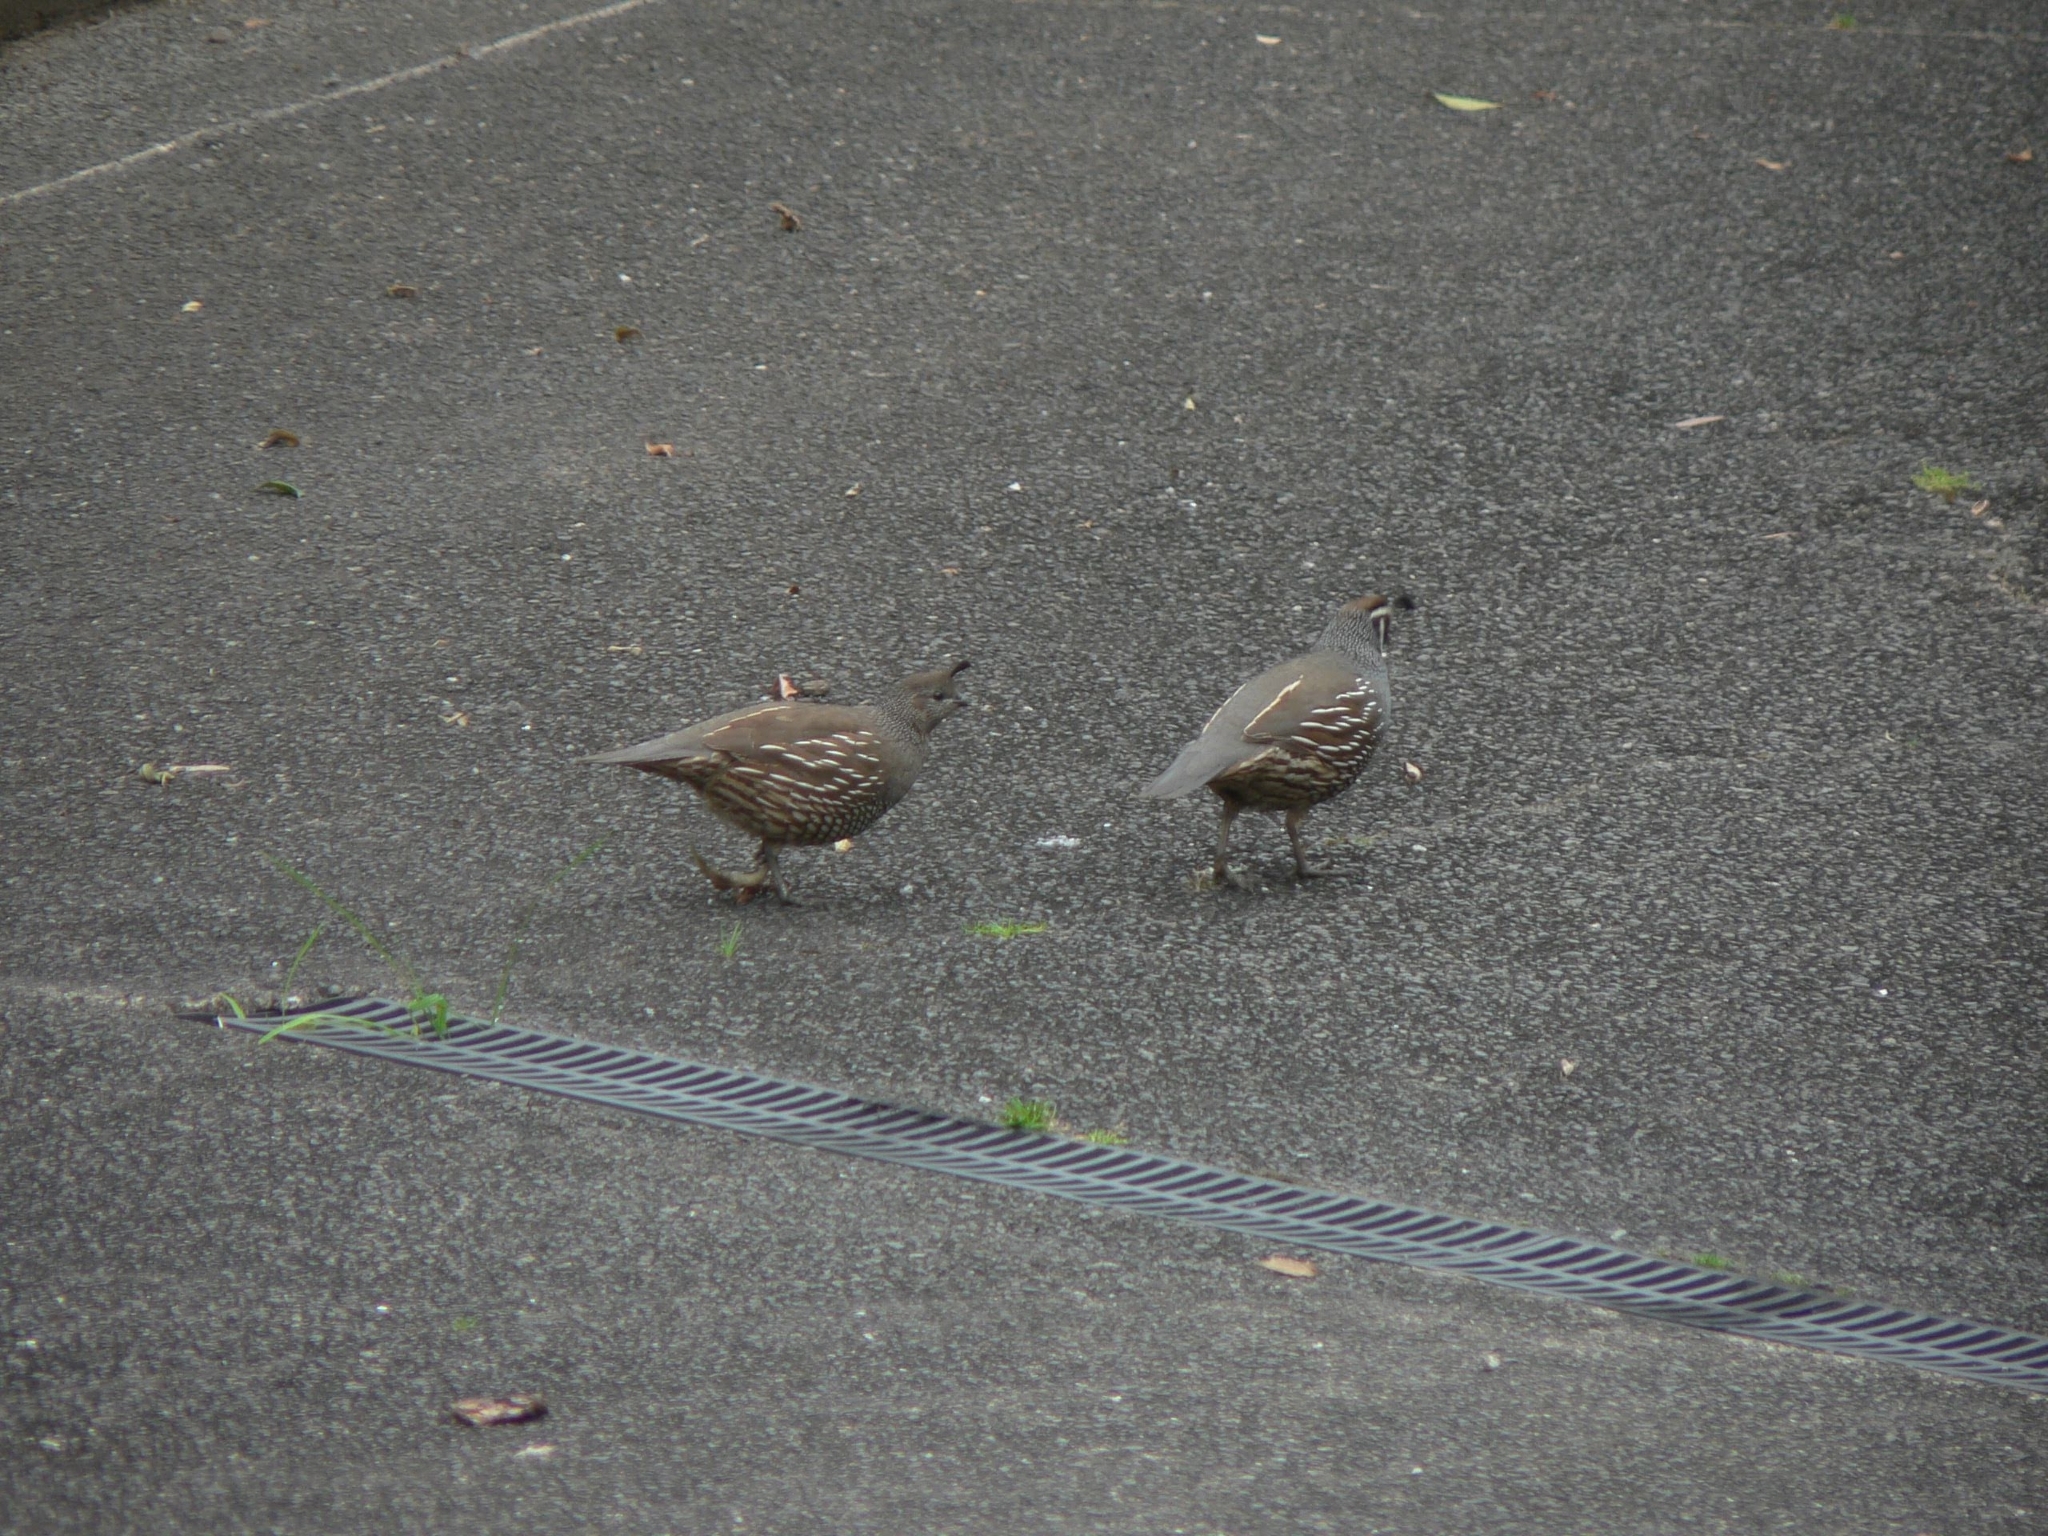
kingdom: Animalia
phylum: Chordata
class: Aves
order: Galliformes
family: Odontophoridae
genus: Callipepla
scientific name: Callipepla californica
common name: California quail
